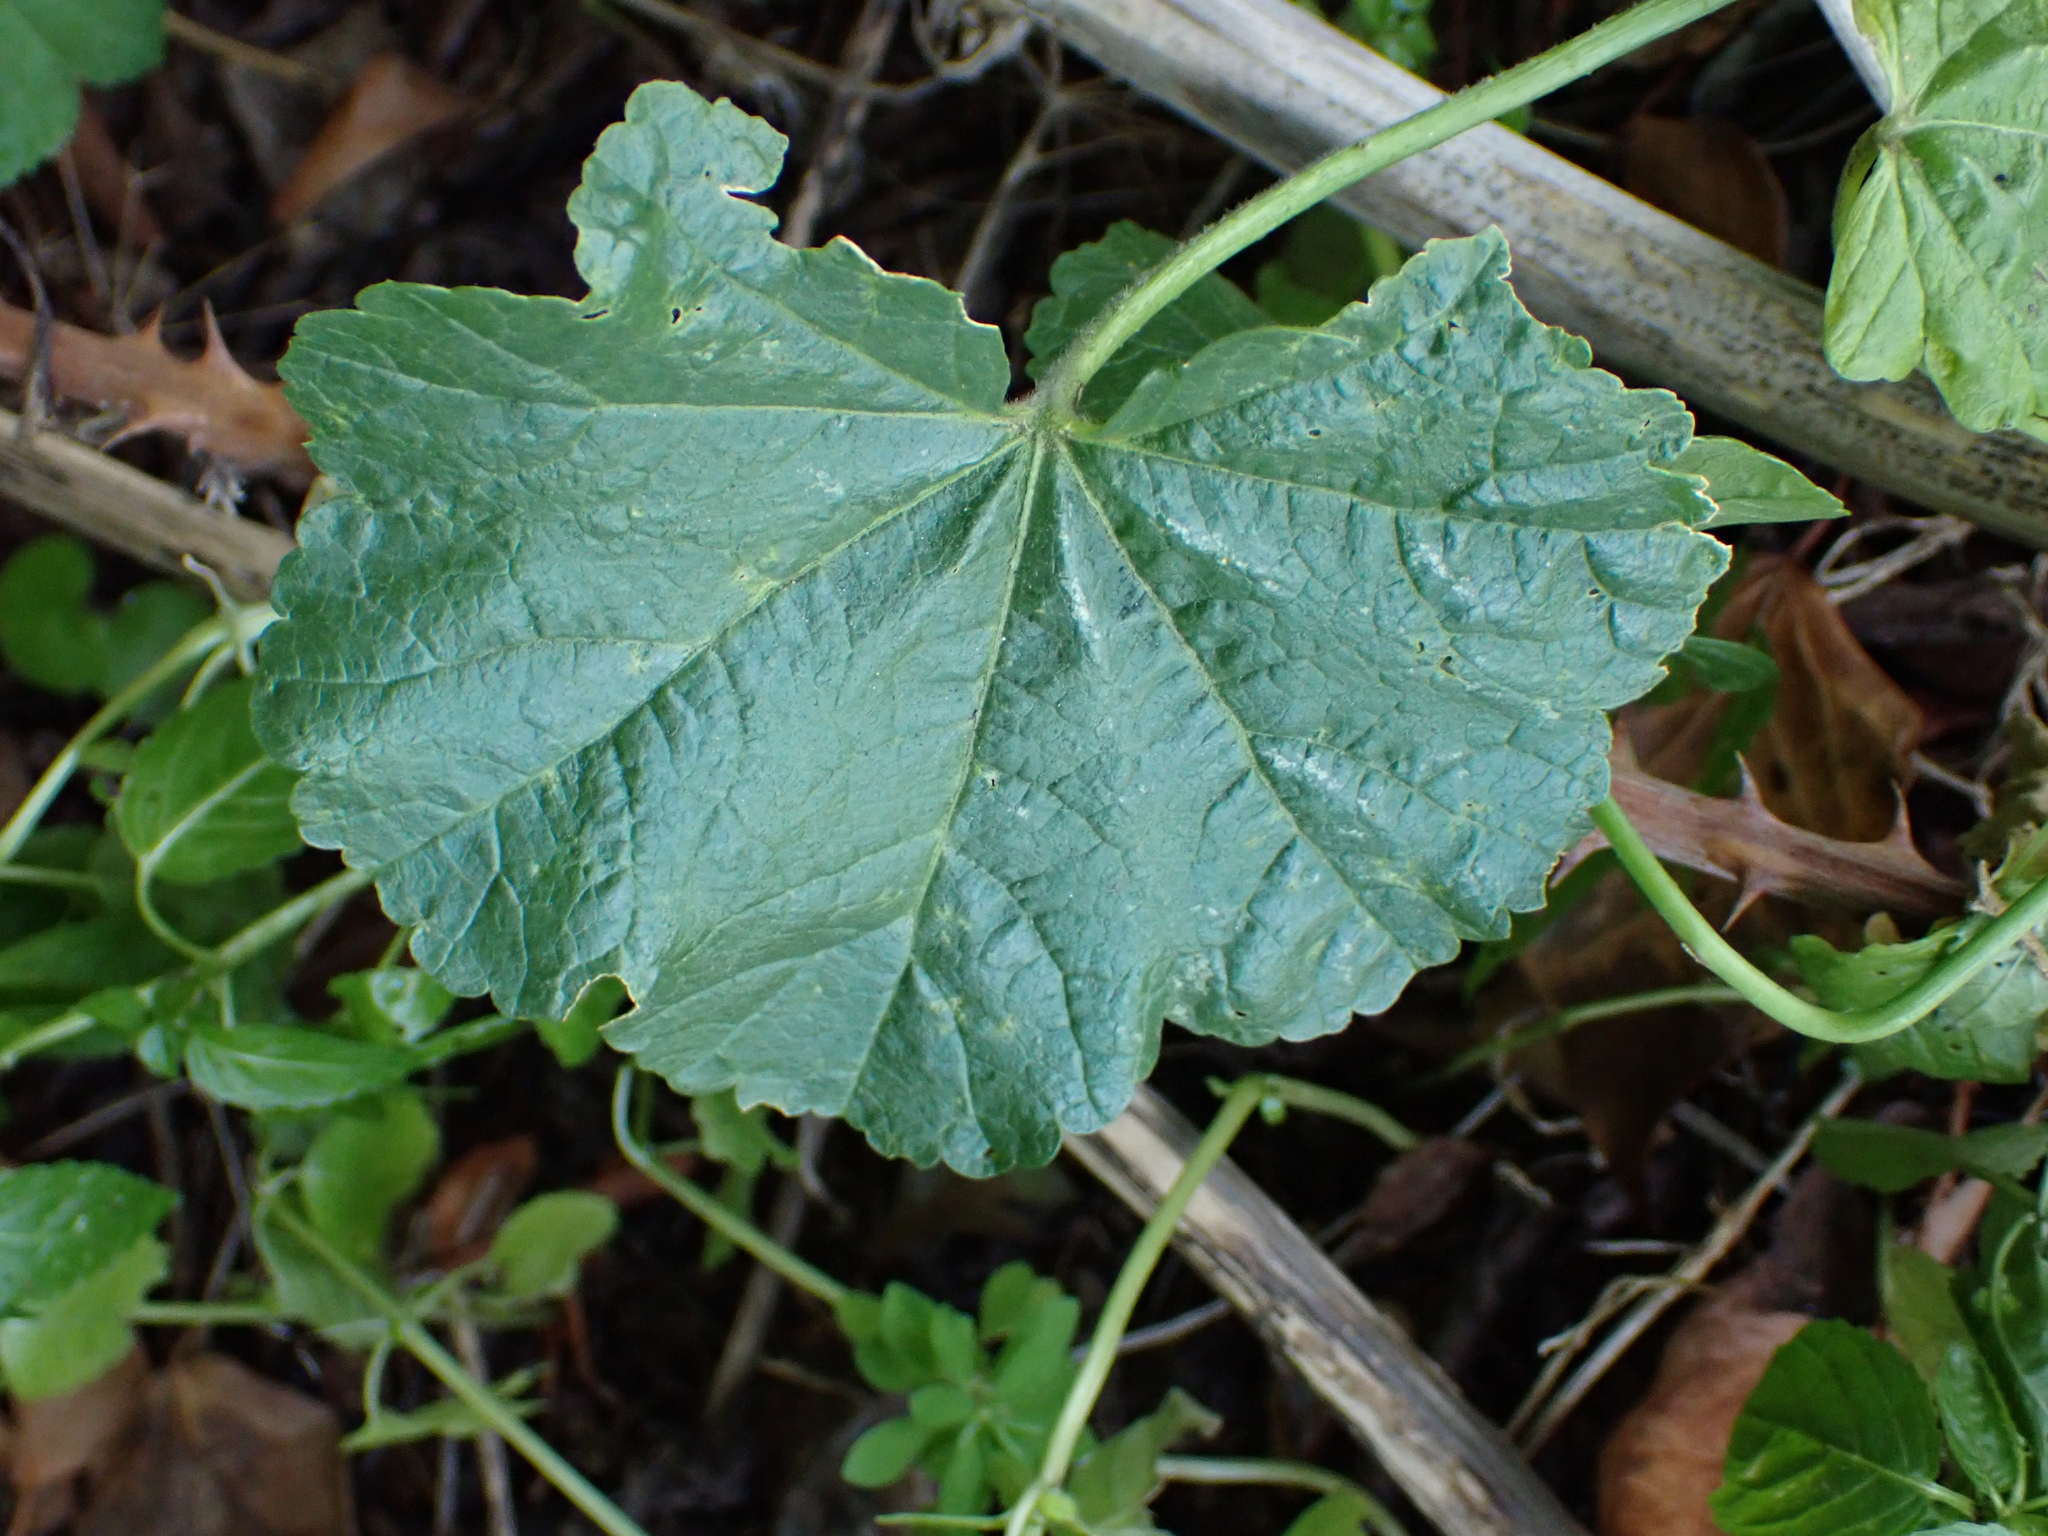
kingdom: Plantae
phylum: Tracheophyta
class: Magnoliopsida
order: Malvales
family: Malvaceae
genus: Malva
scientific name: Malva sylvestris
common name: Common mallow
